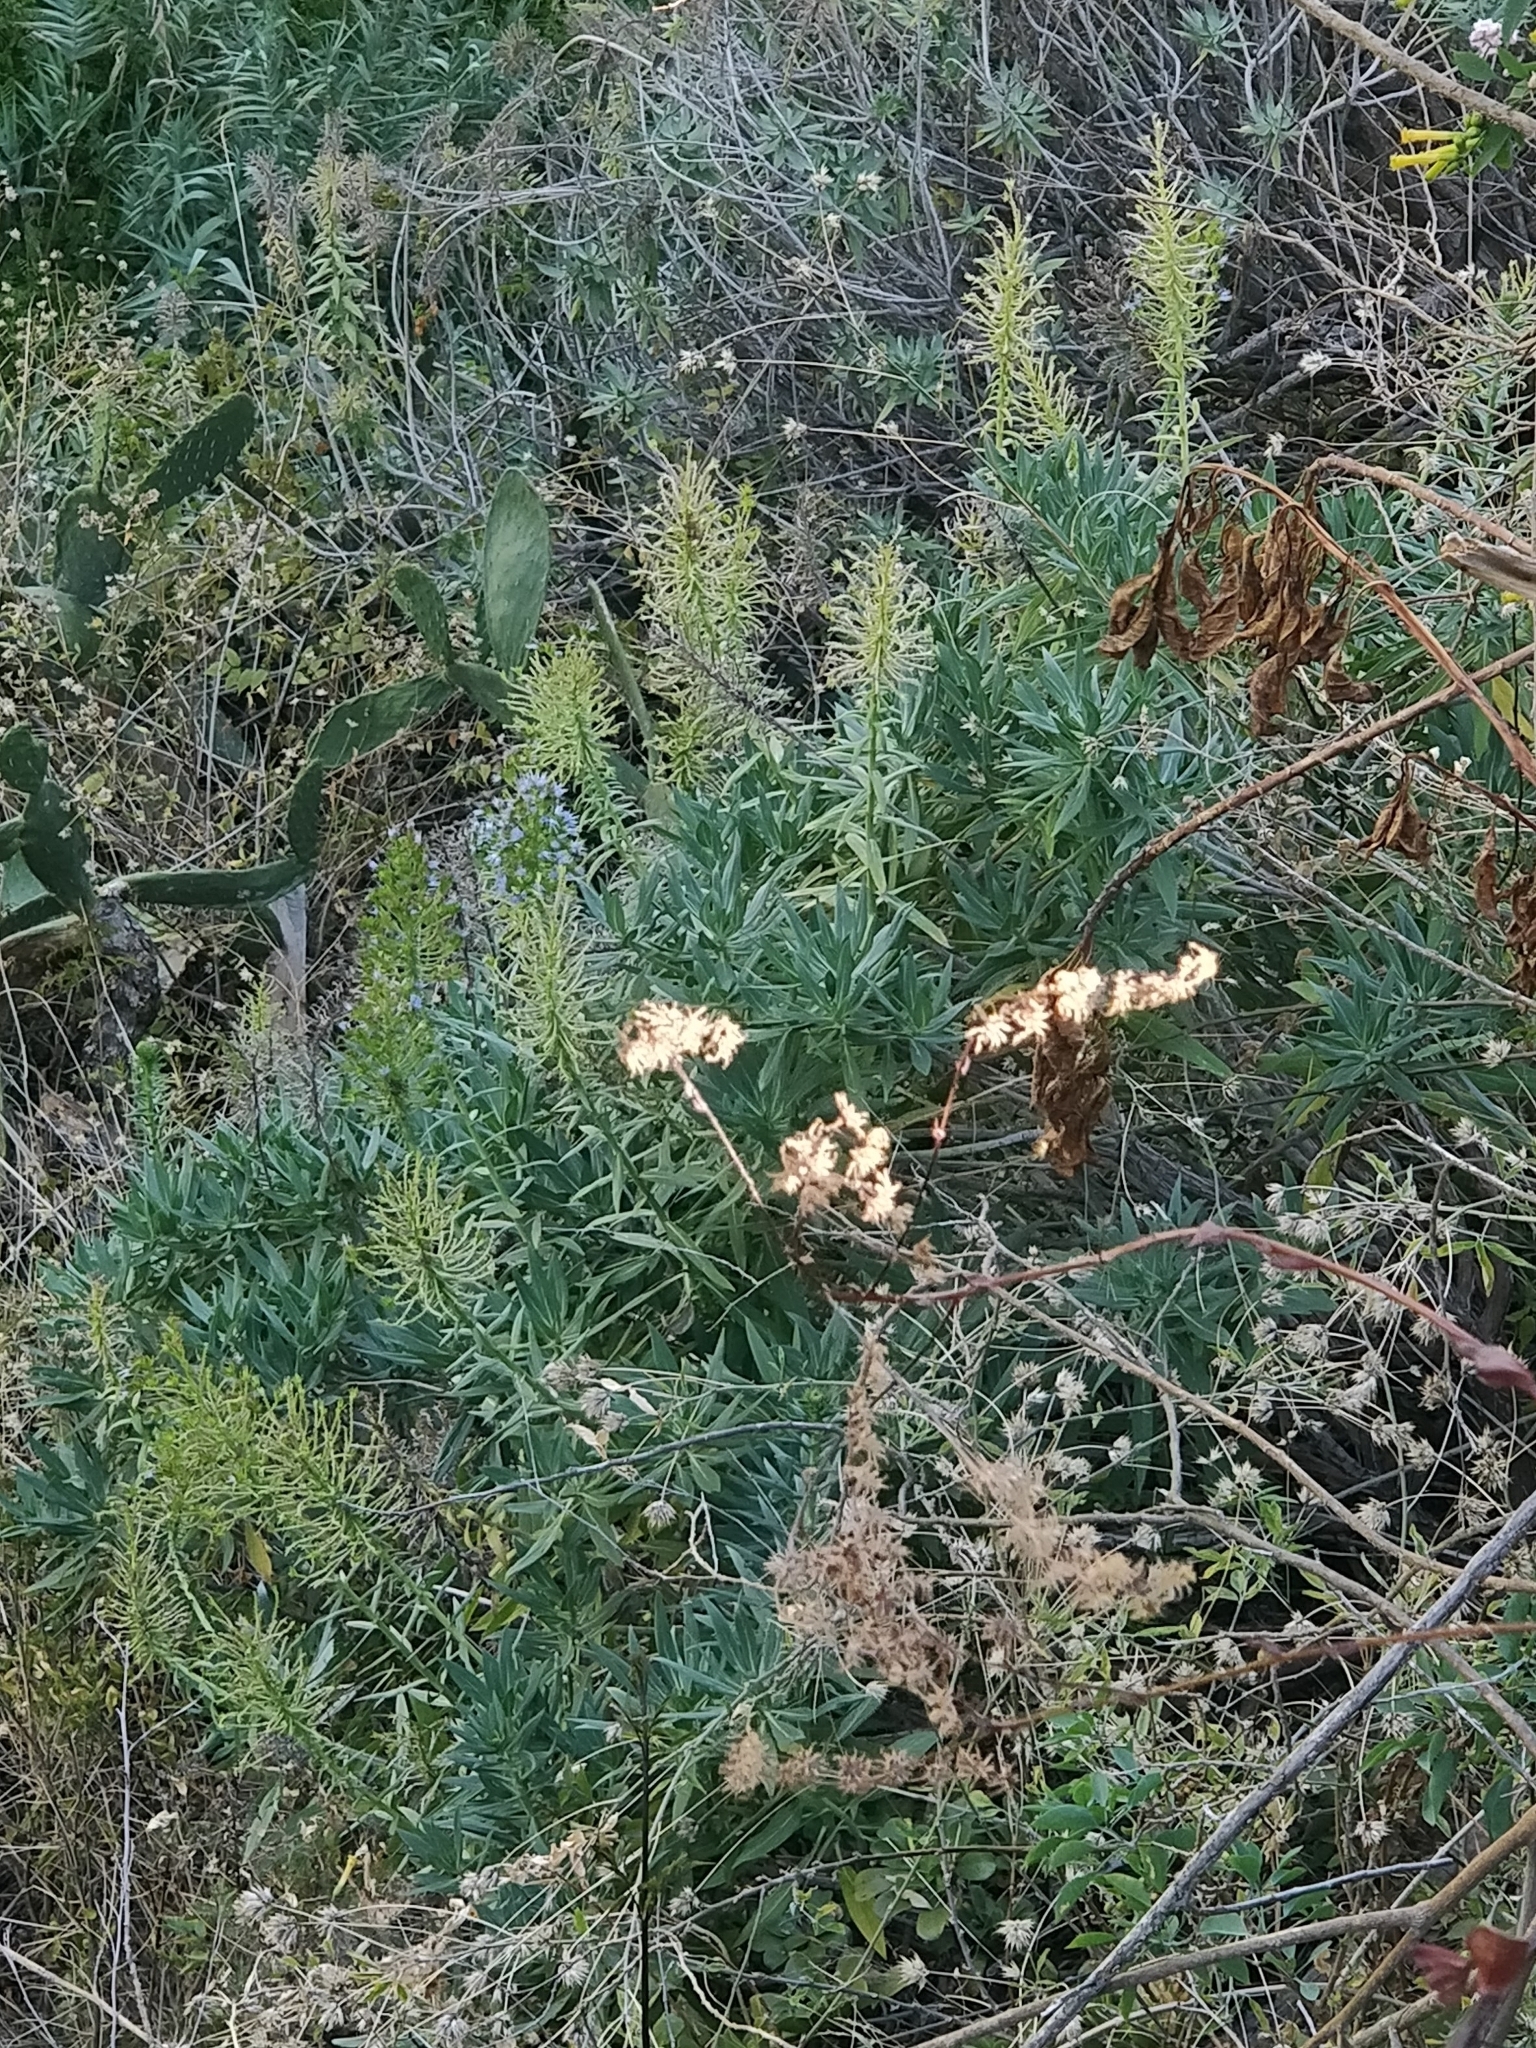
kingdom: Plantae
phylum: Tracheophyta
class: Magnoliopsida
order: Boraginales
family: Boraginaceae
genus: Echium
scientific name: Echium nervosum
